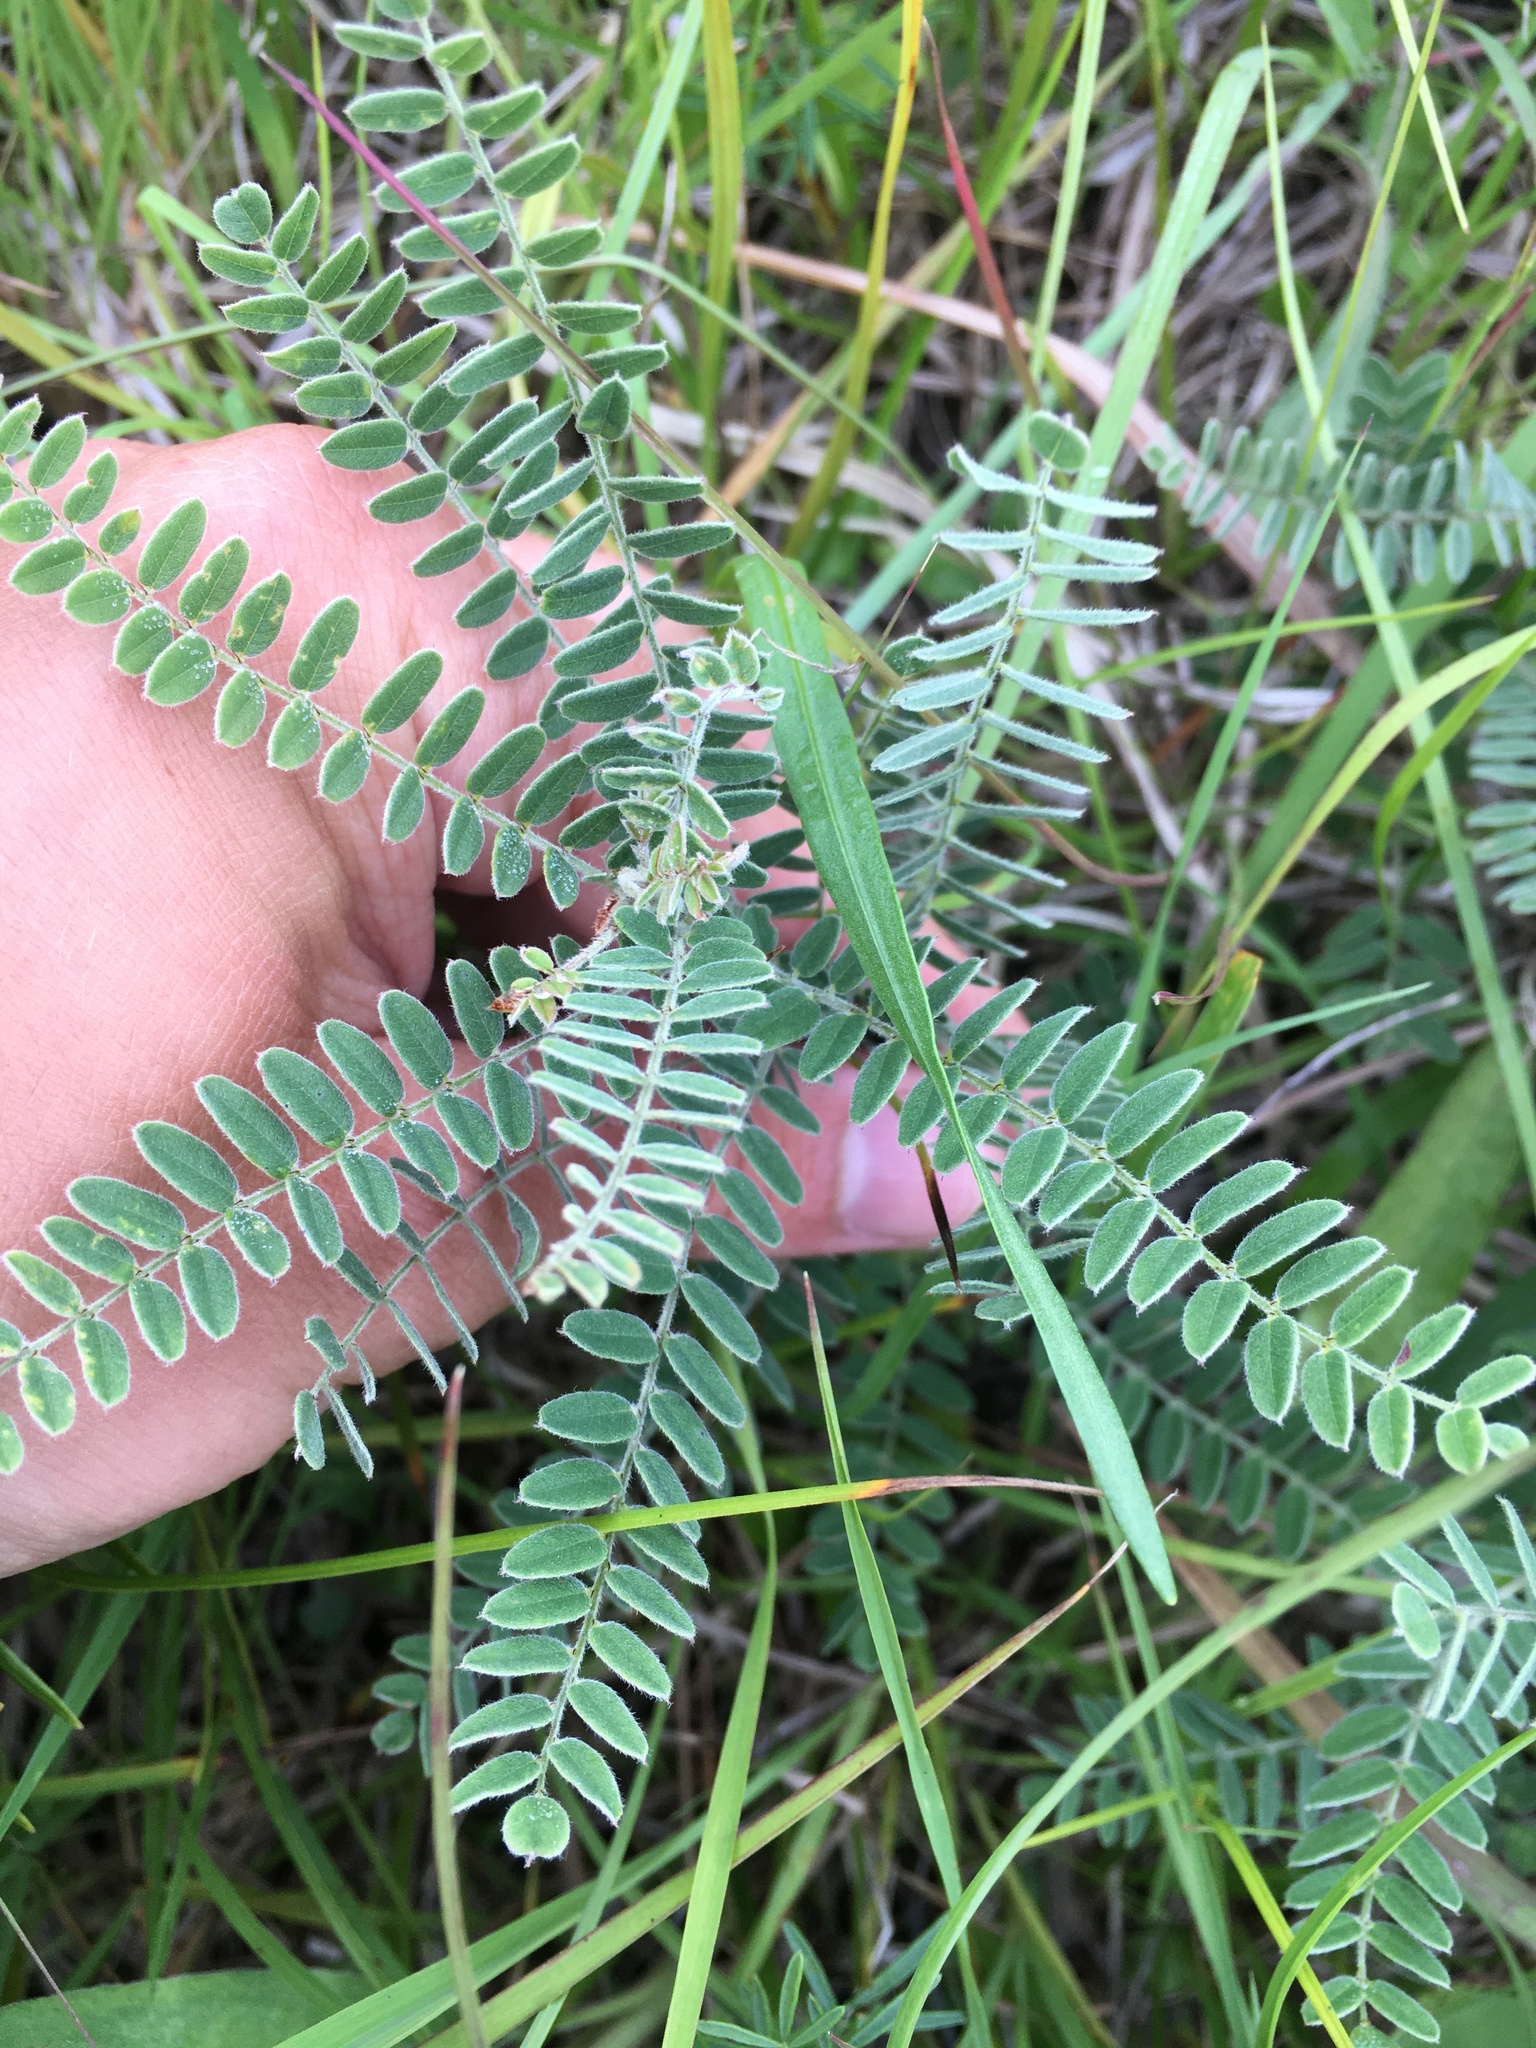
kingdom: Plantae
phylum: Tracheophyta
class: Magnoliopsida
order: Fabales
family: Fabaceae
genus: Amorpha
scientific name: Amorpha canescens
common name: Leadplant
